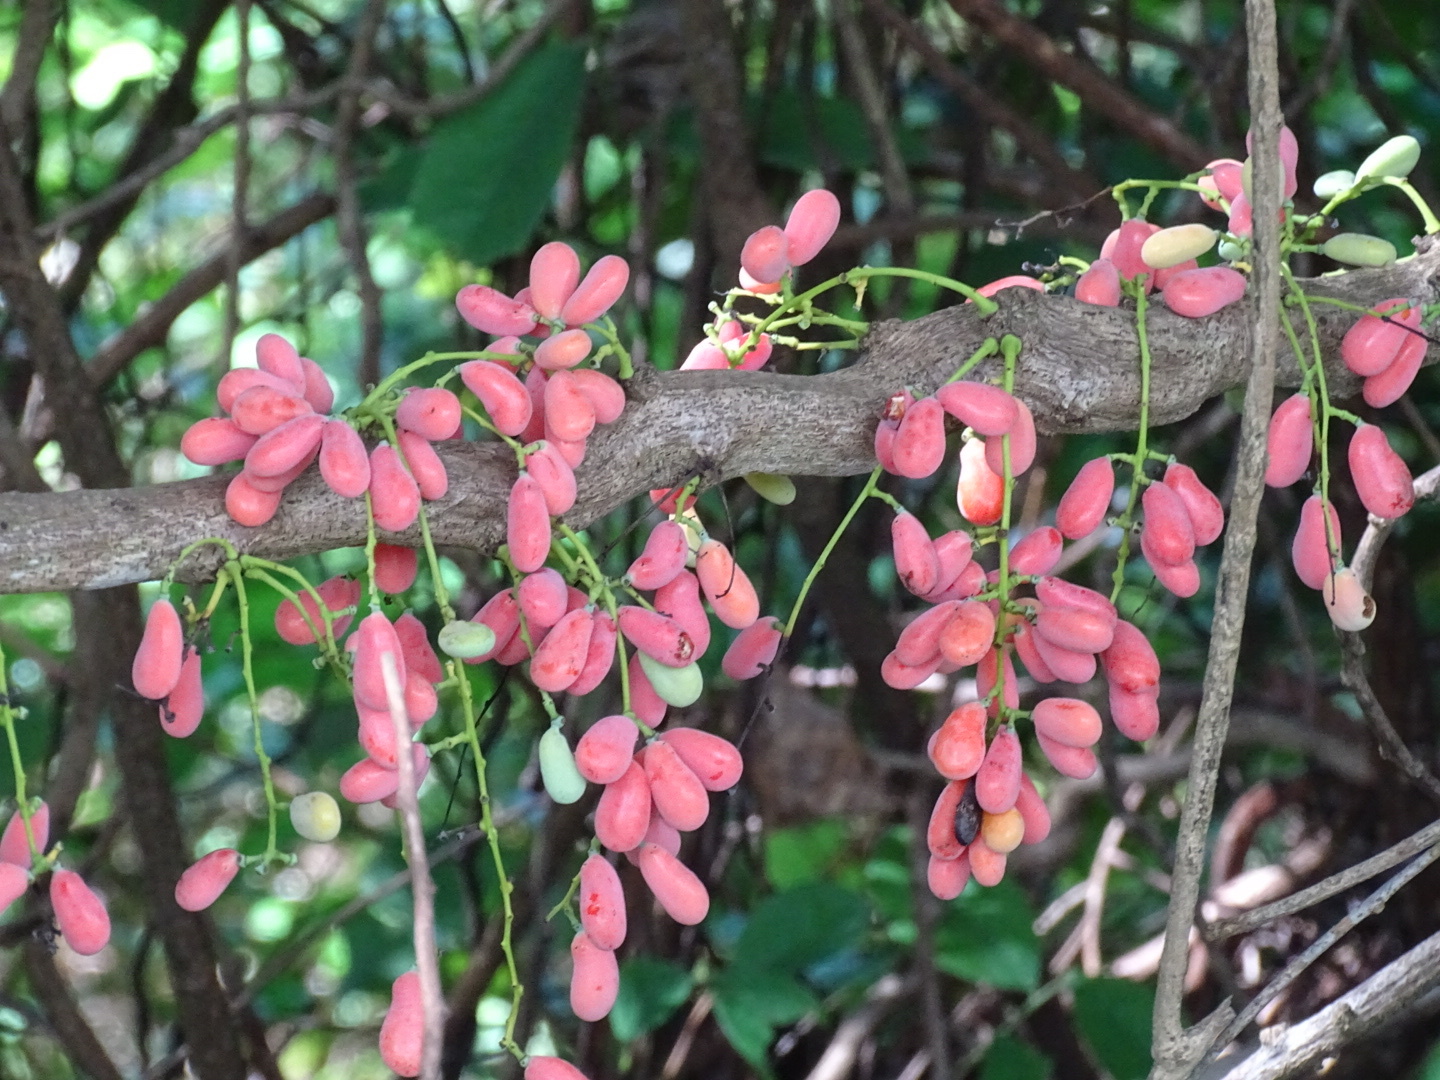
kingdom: Plantae
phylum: Tracheophyta
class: Magnoliopsida
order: Ranunculales
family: Menispermaceae
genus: Diploclisia
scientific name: Diploclisia glaucescens
